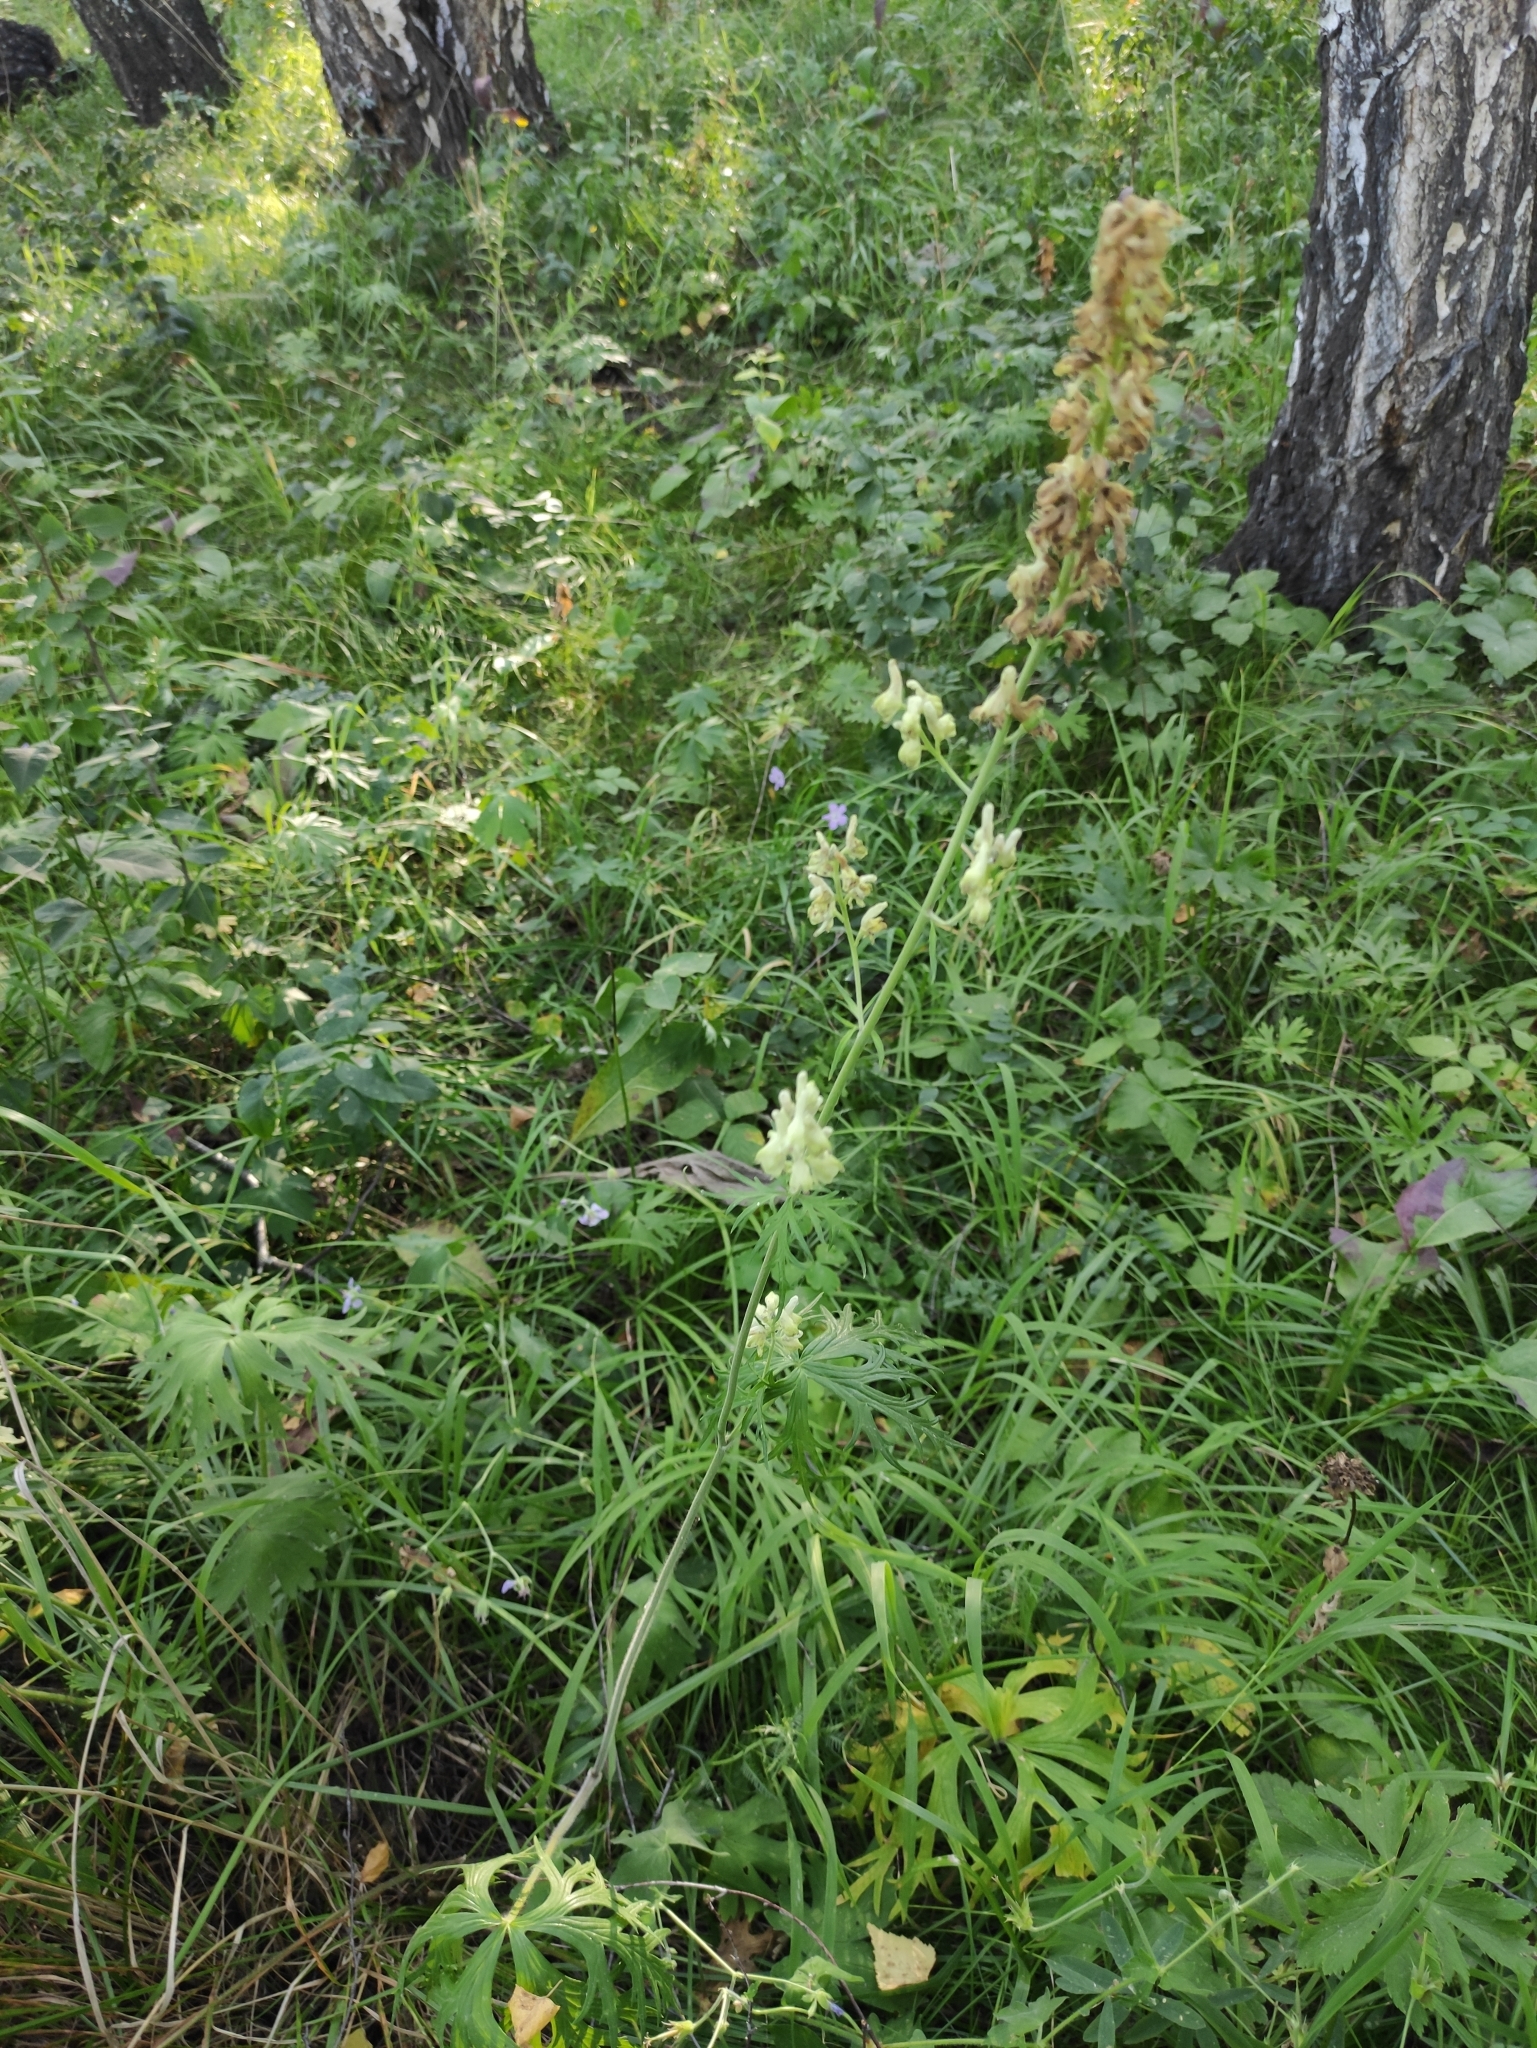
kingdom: Plantae
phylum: Tracheophyta
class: Magnoliopsida
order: Ranunculales
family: Ranunculaceae
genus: Aconitum
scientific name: Aconitum barbatum
